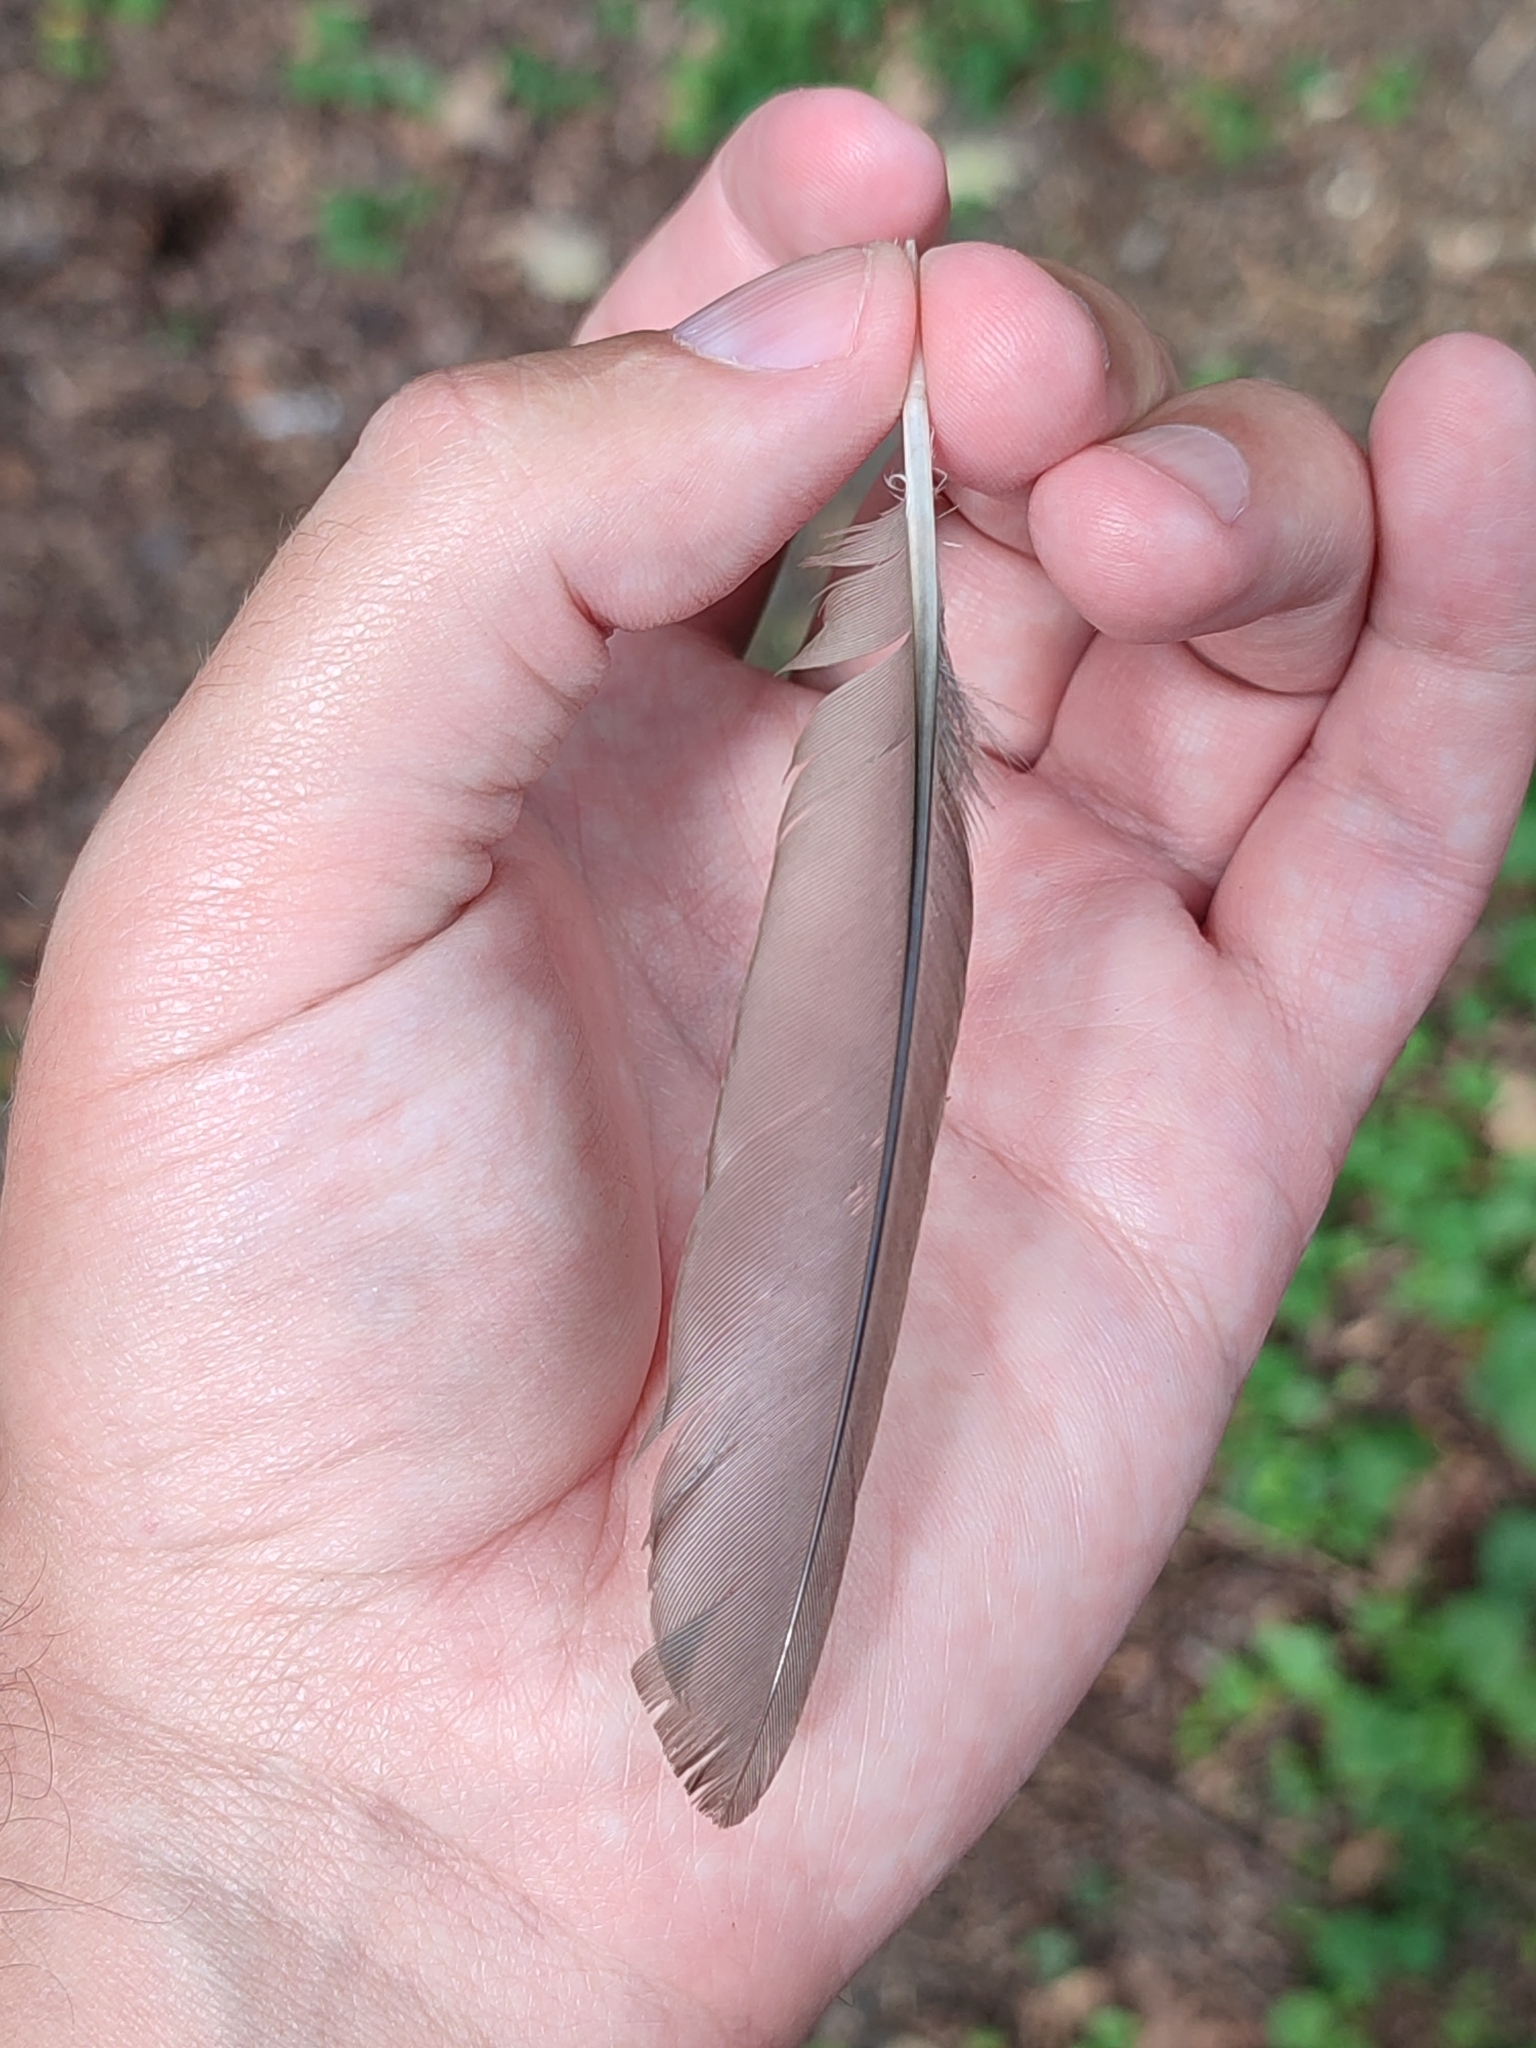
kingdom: Animalia
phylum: Chordata
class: Aves
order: Passeriformes
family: Turdidae
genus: Turdus
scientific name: Turdus merula
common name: Common blackbird
